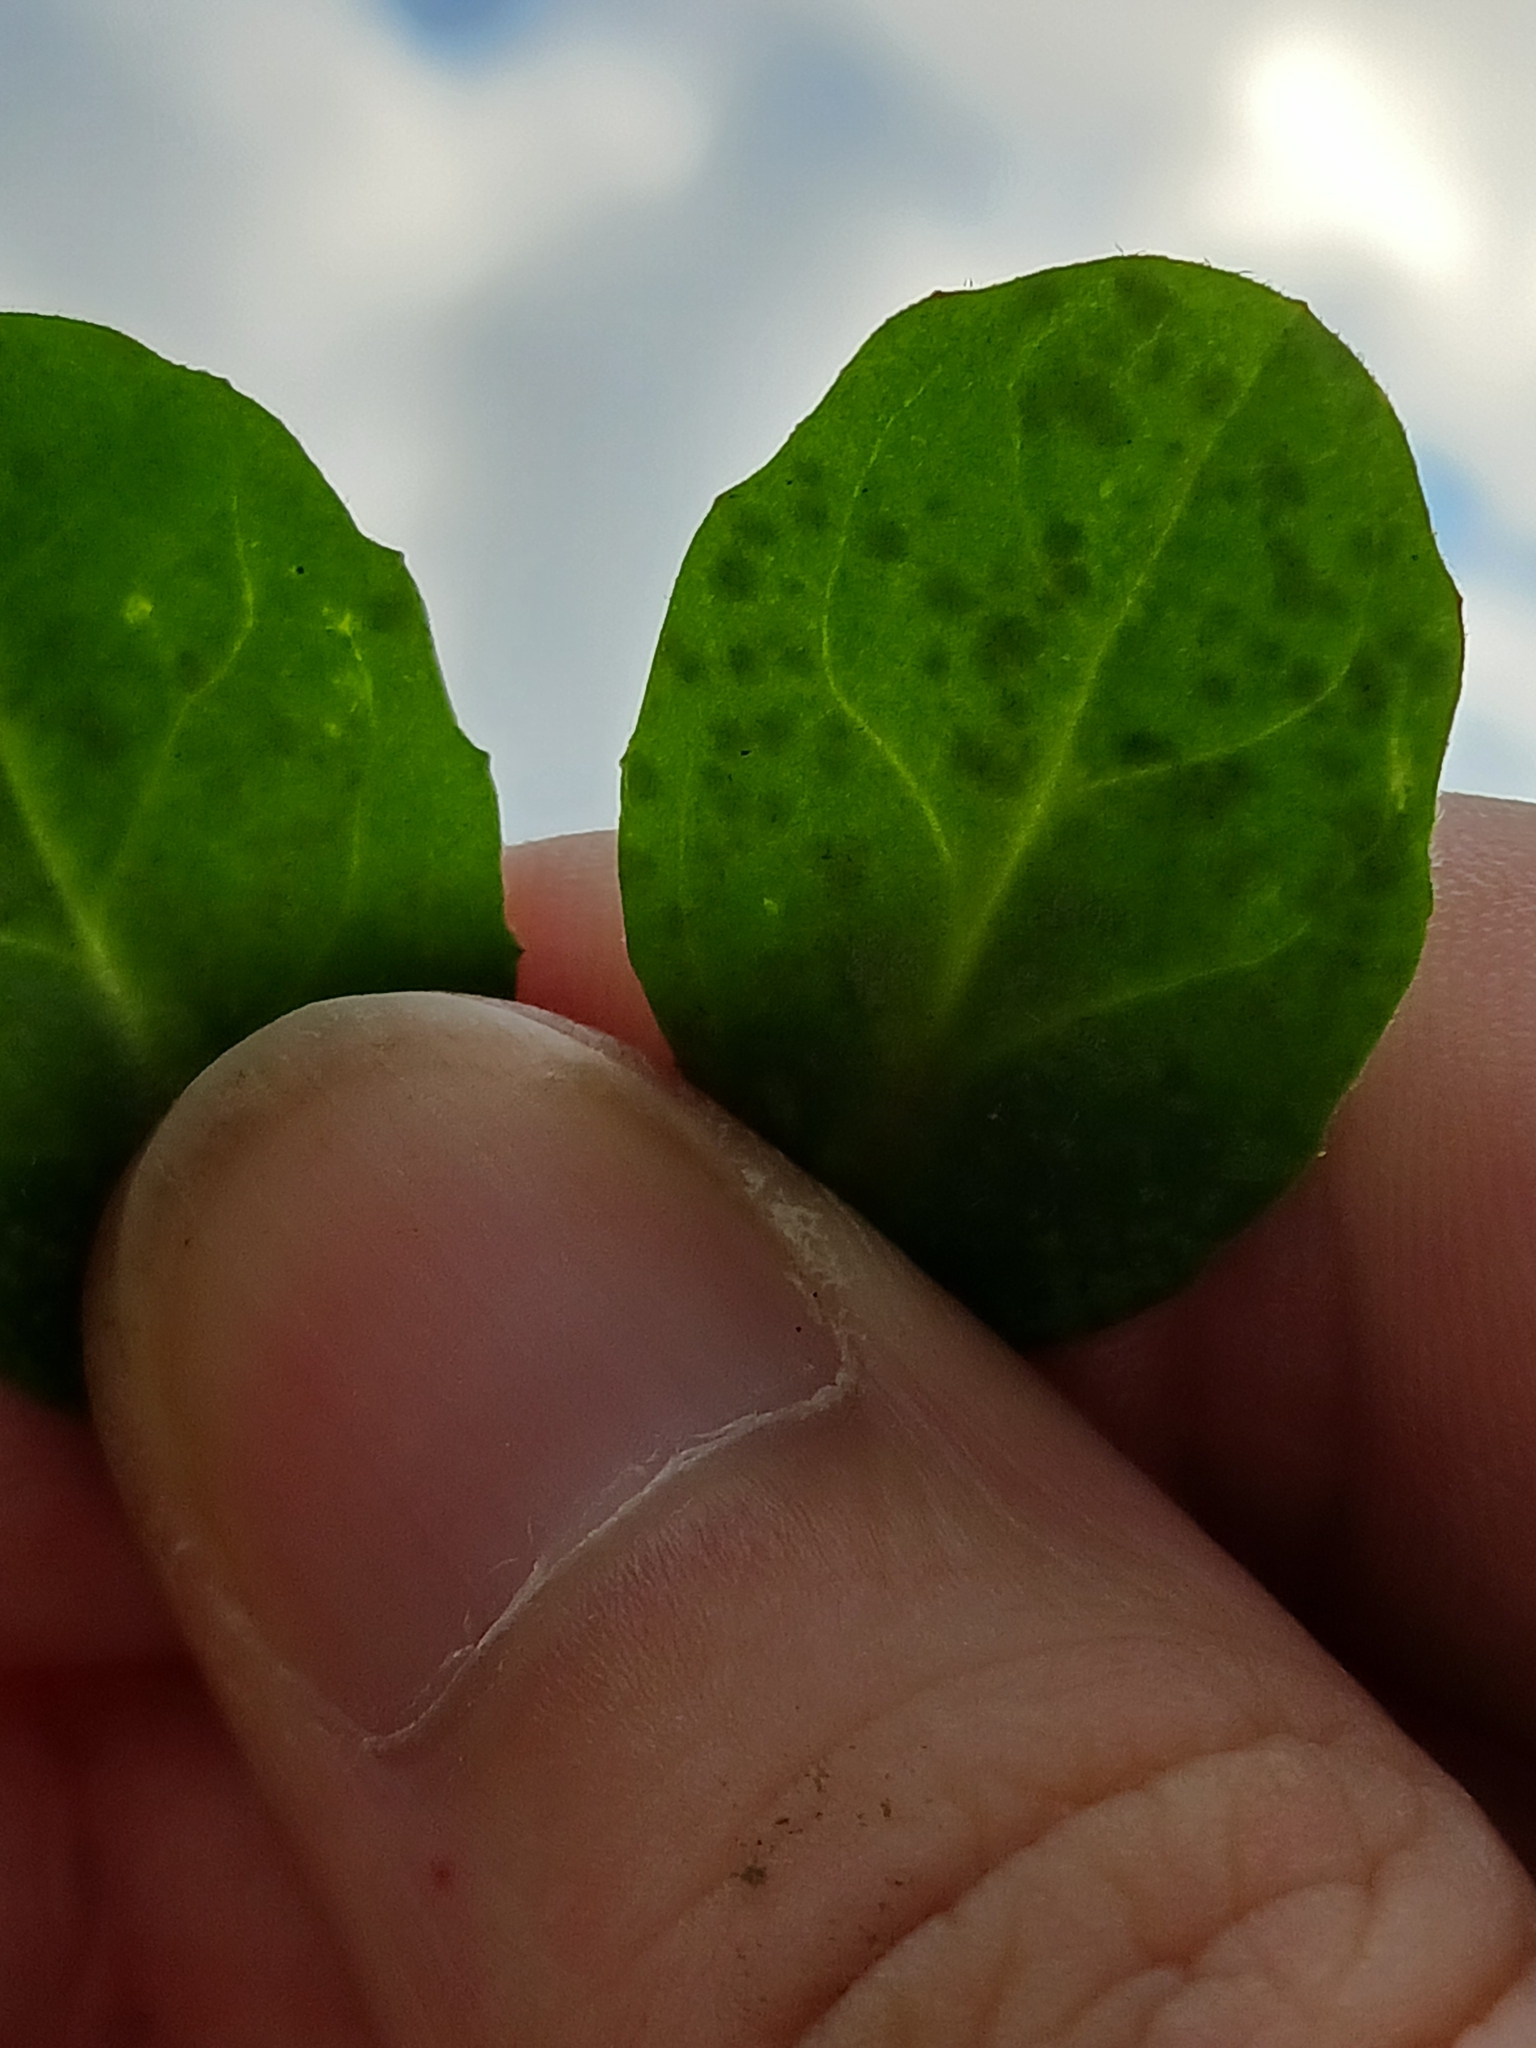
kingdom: Fungi
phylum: Basidiomycota
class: Exobasidiomycetes
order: Entylomatales
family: Entylomataceae
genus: Entyloma
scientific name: Entyloma bellidis
